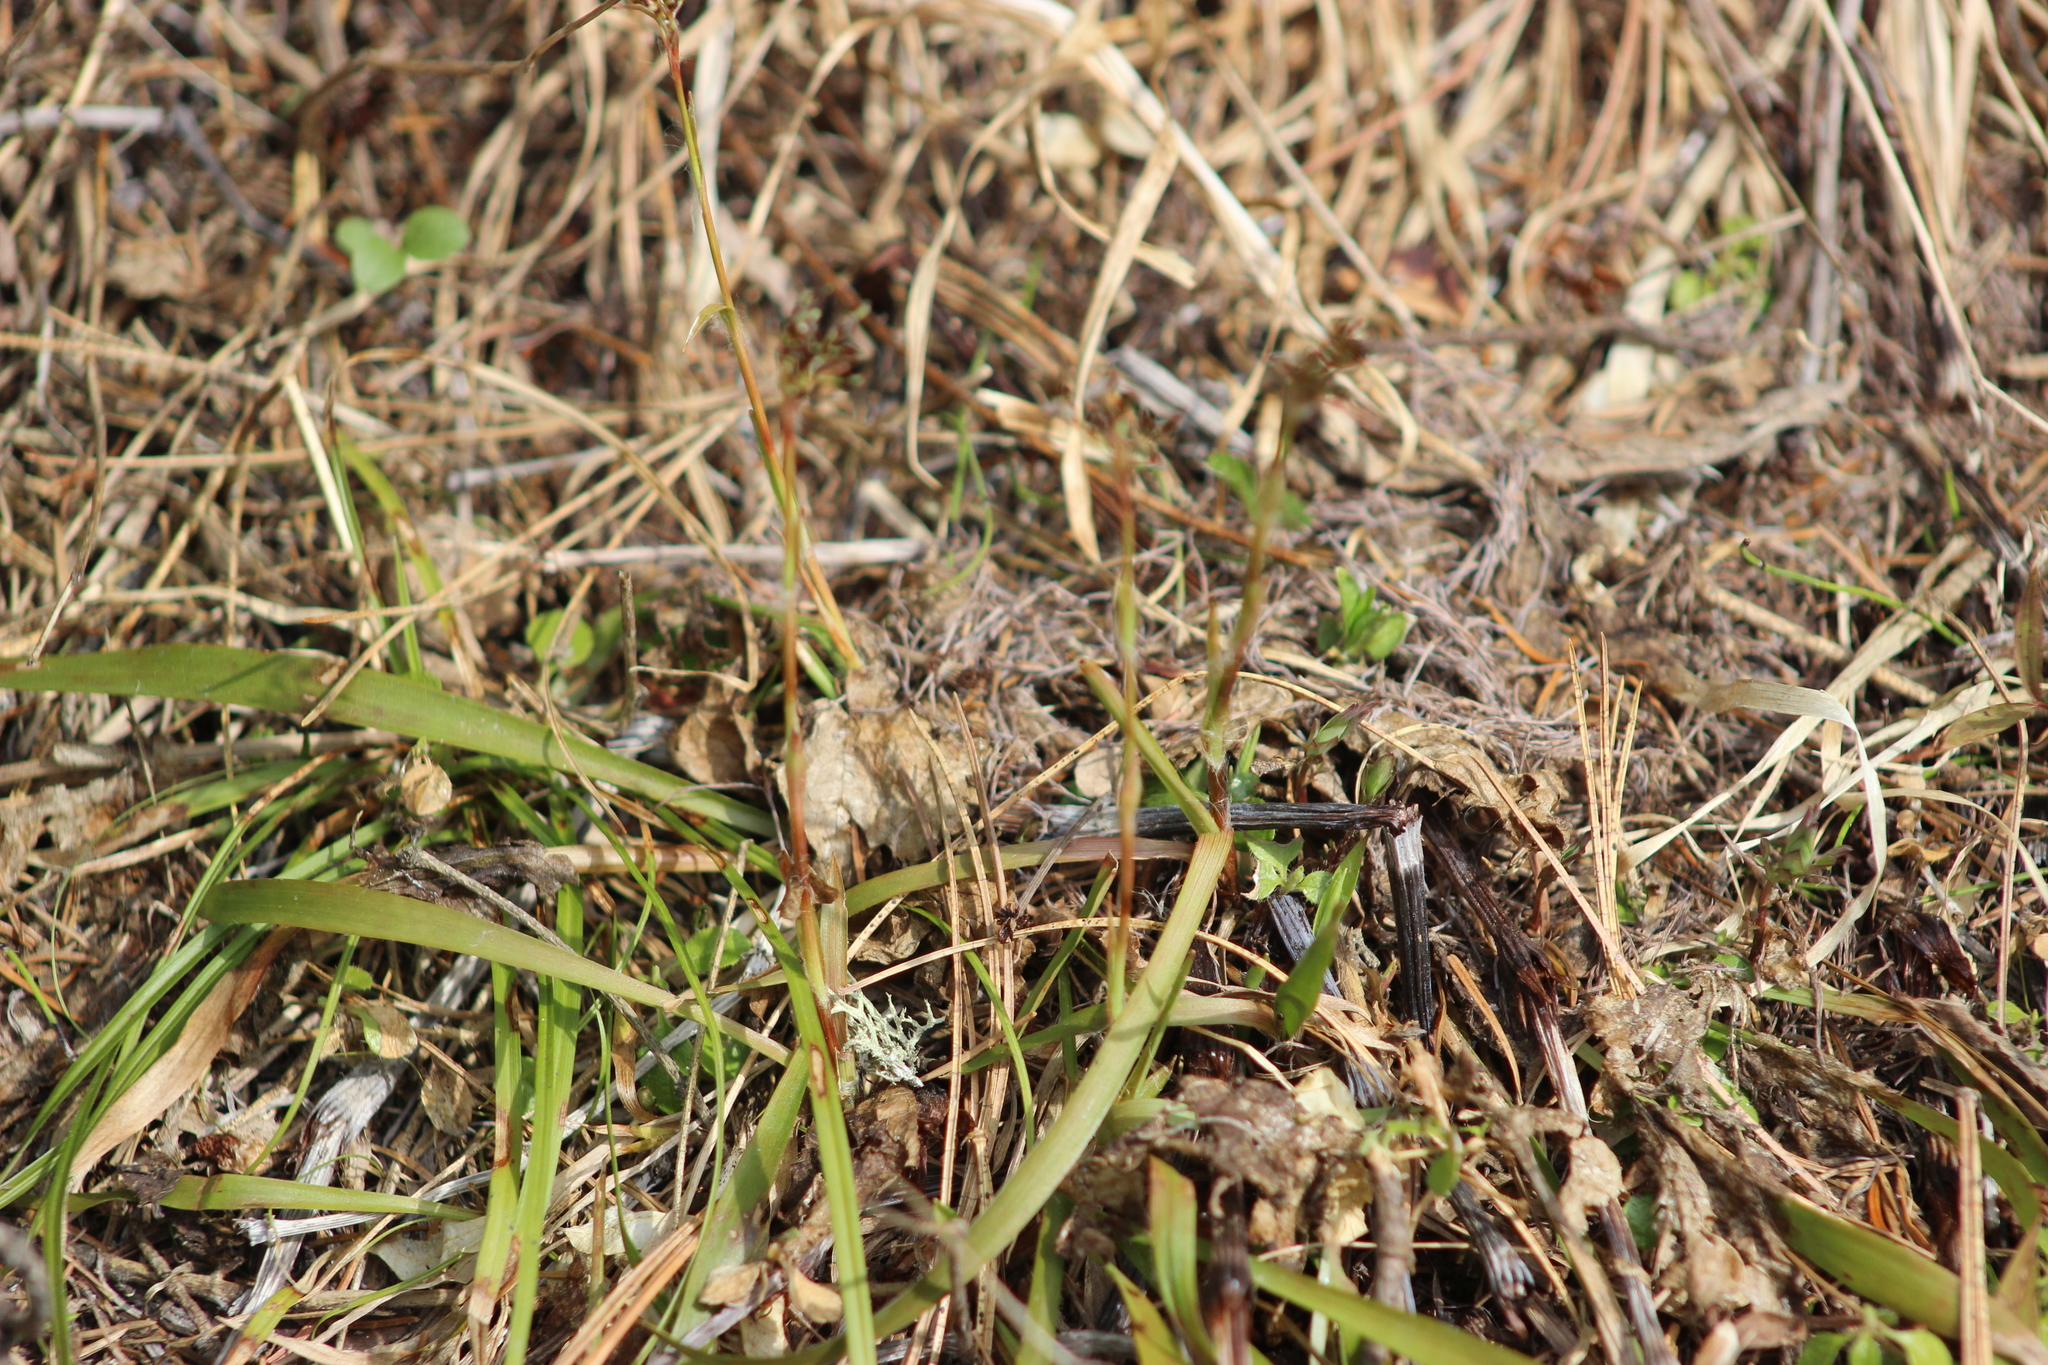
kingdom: Plantae
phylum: Tracheophyta
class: Liliopsida
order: Poales
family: Juncaceae
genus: Luzula
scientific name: Luzula pilosa
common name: Hairy wood-rush
